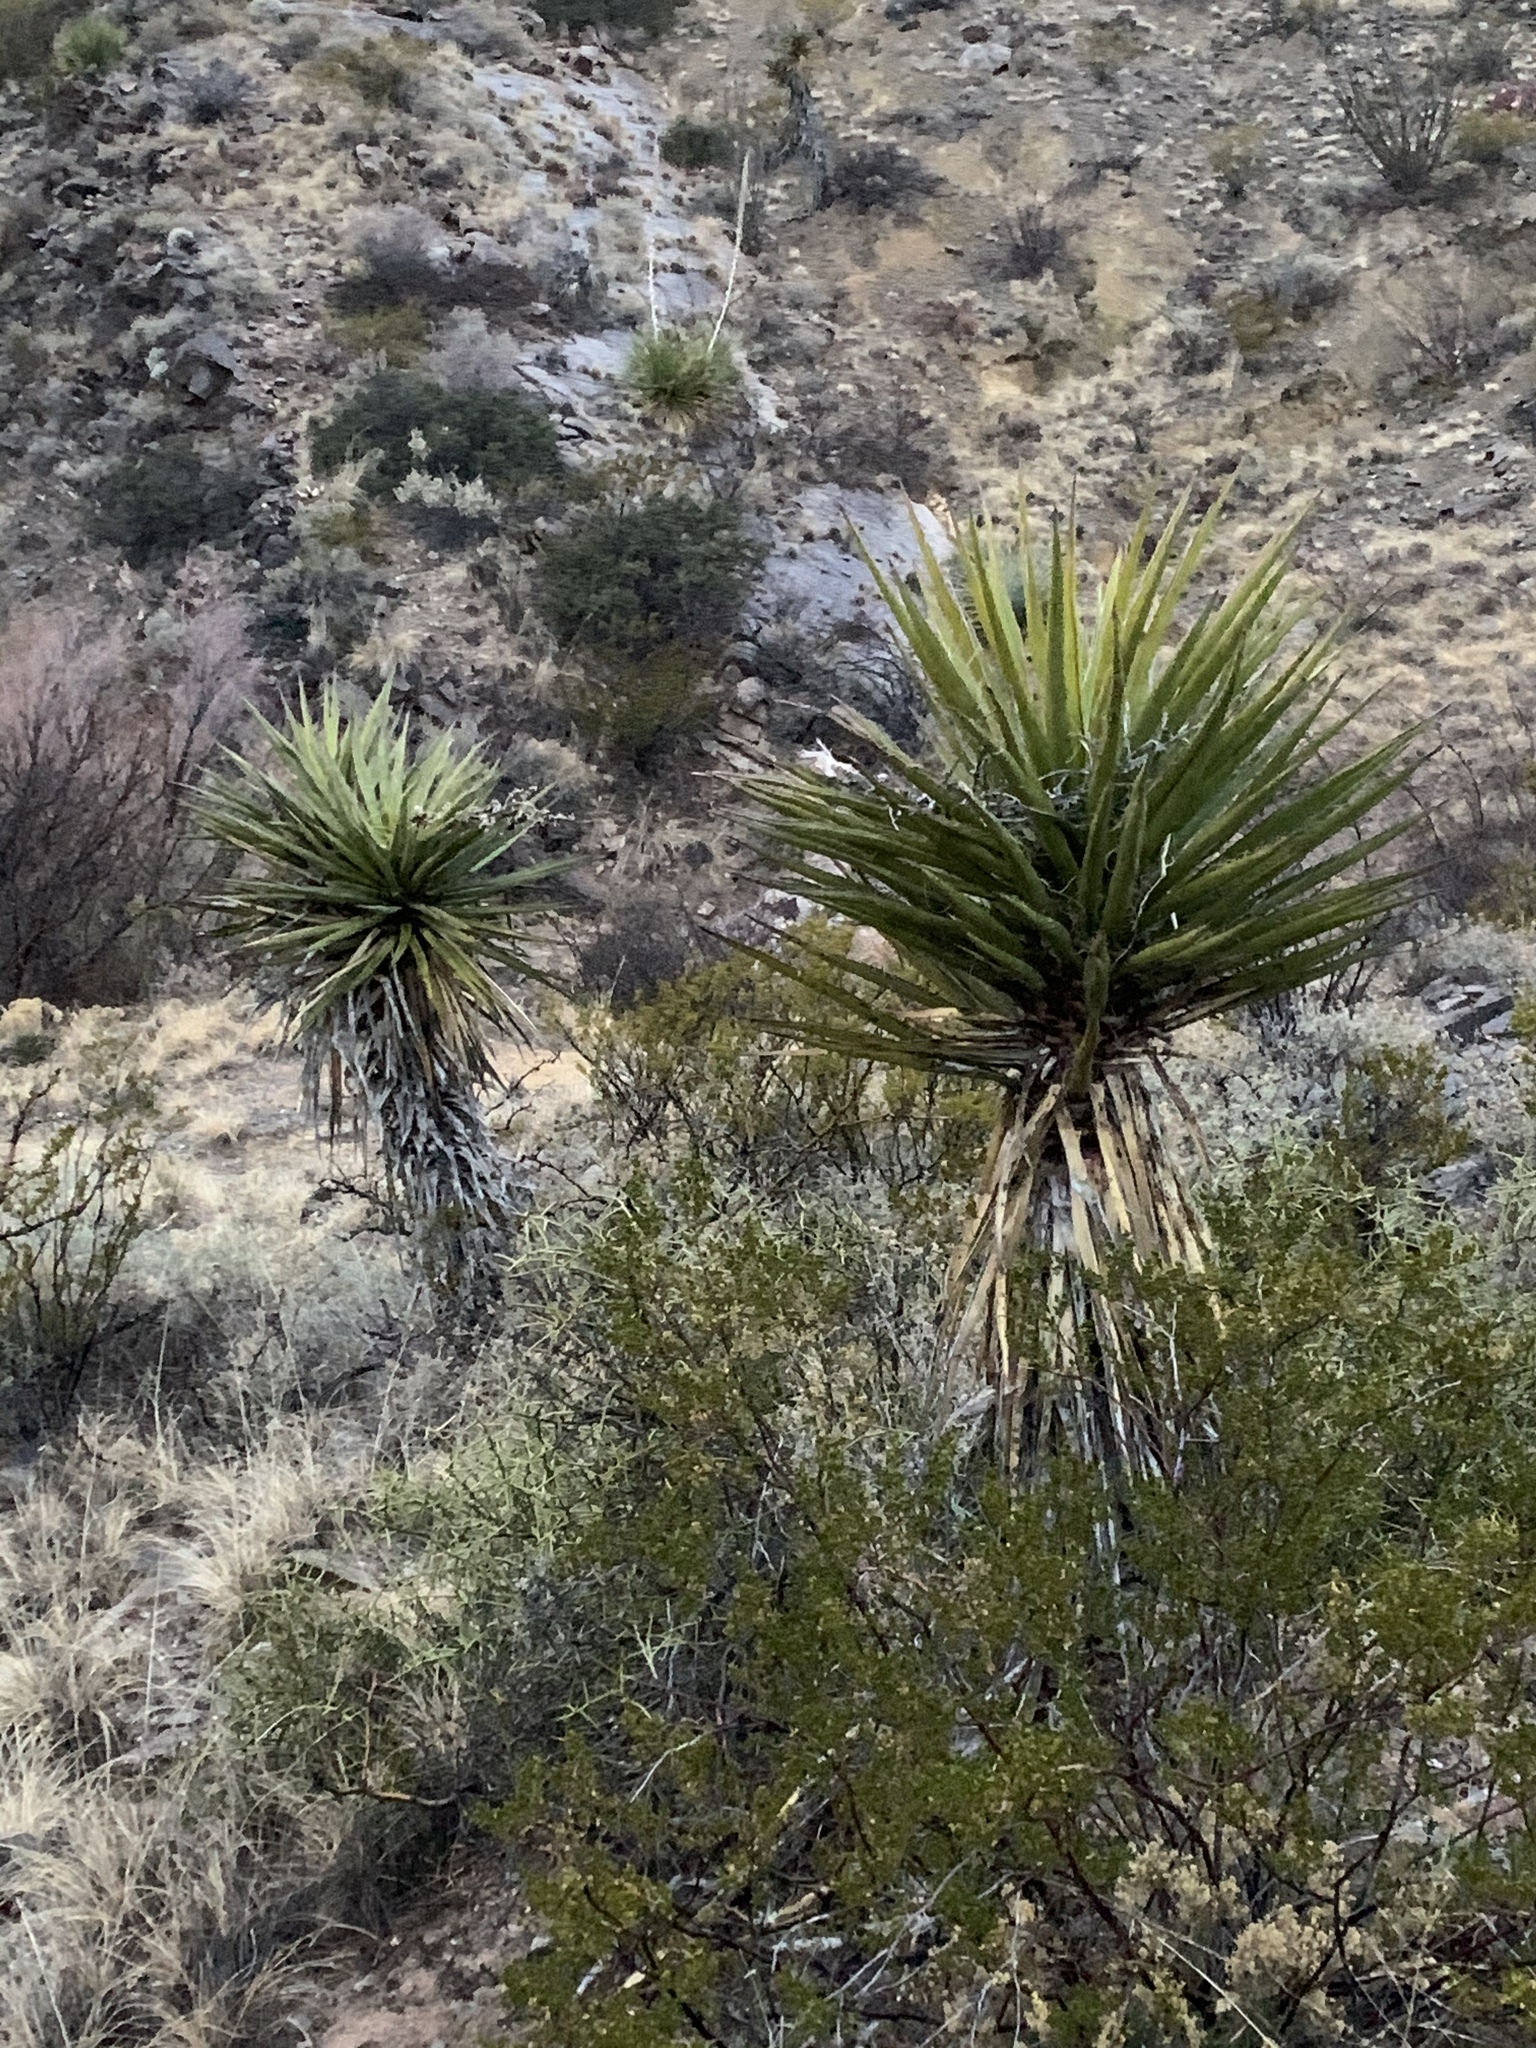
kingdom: Plantae
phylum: Tracheophyta
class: Liliopsida
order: Asparagales
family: Asparagaceae
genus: Yucca
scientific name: Yucca treculiana
